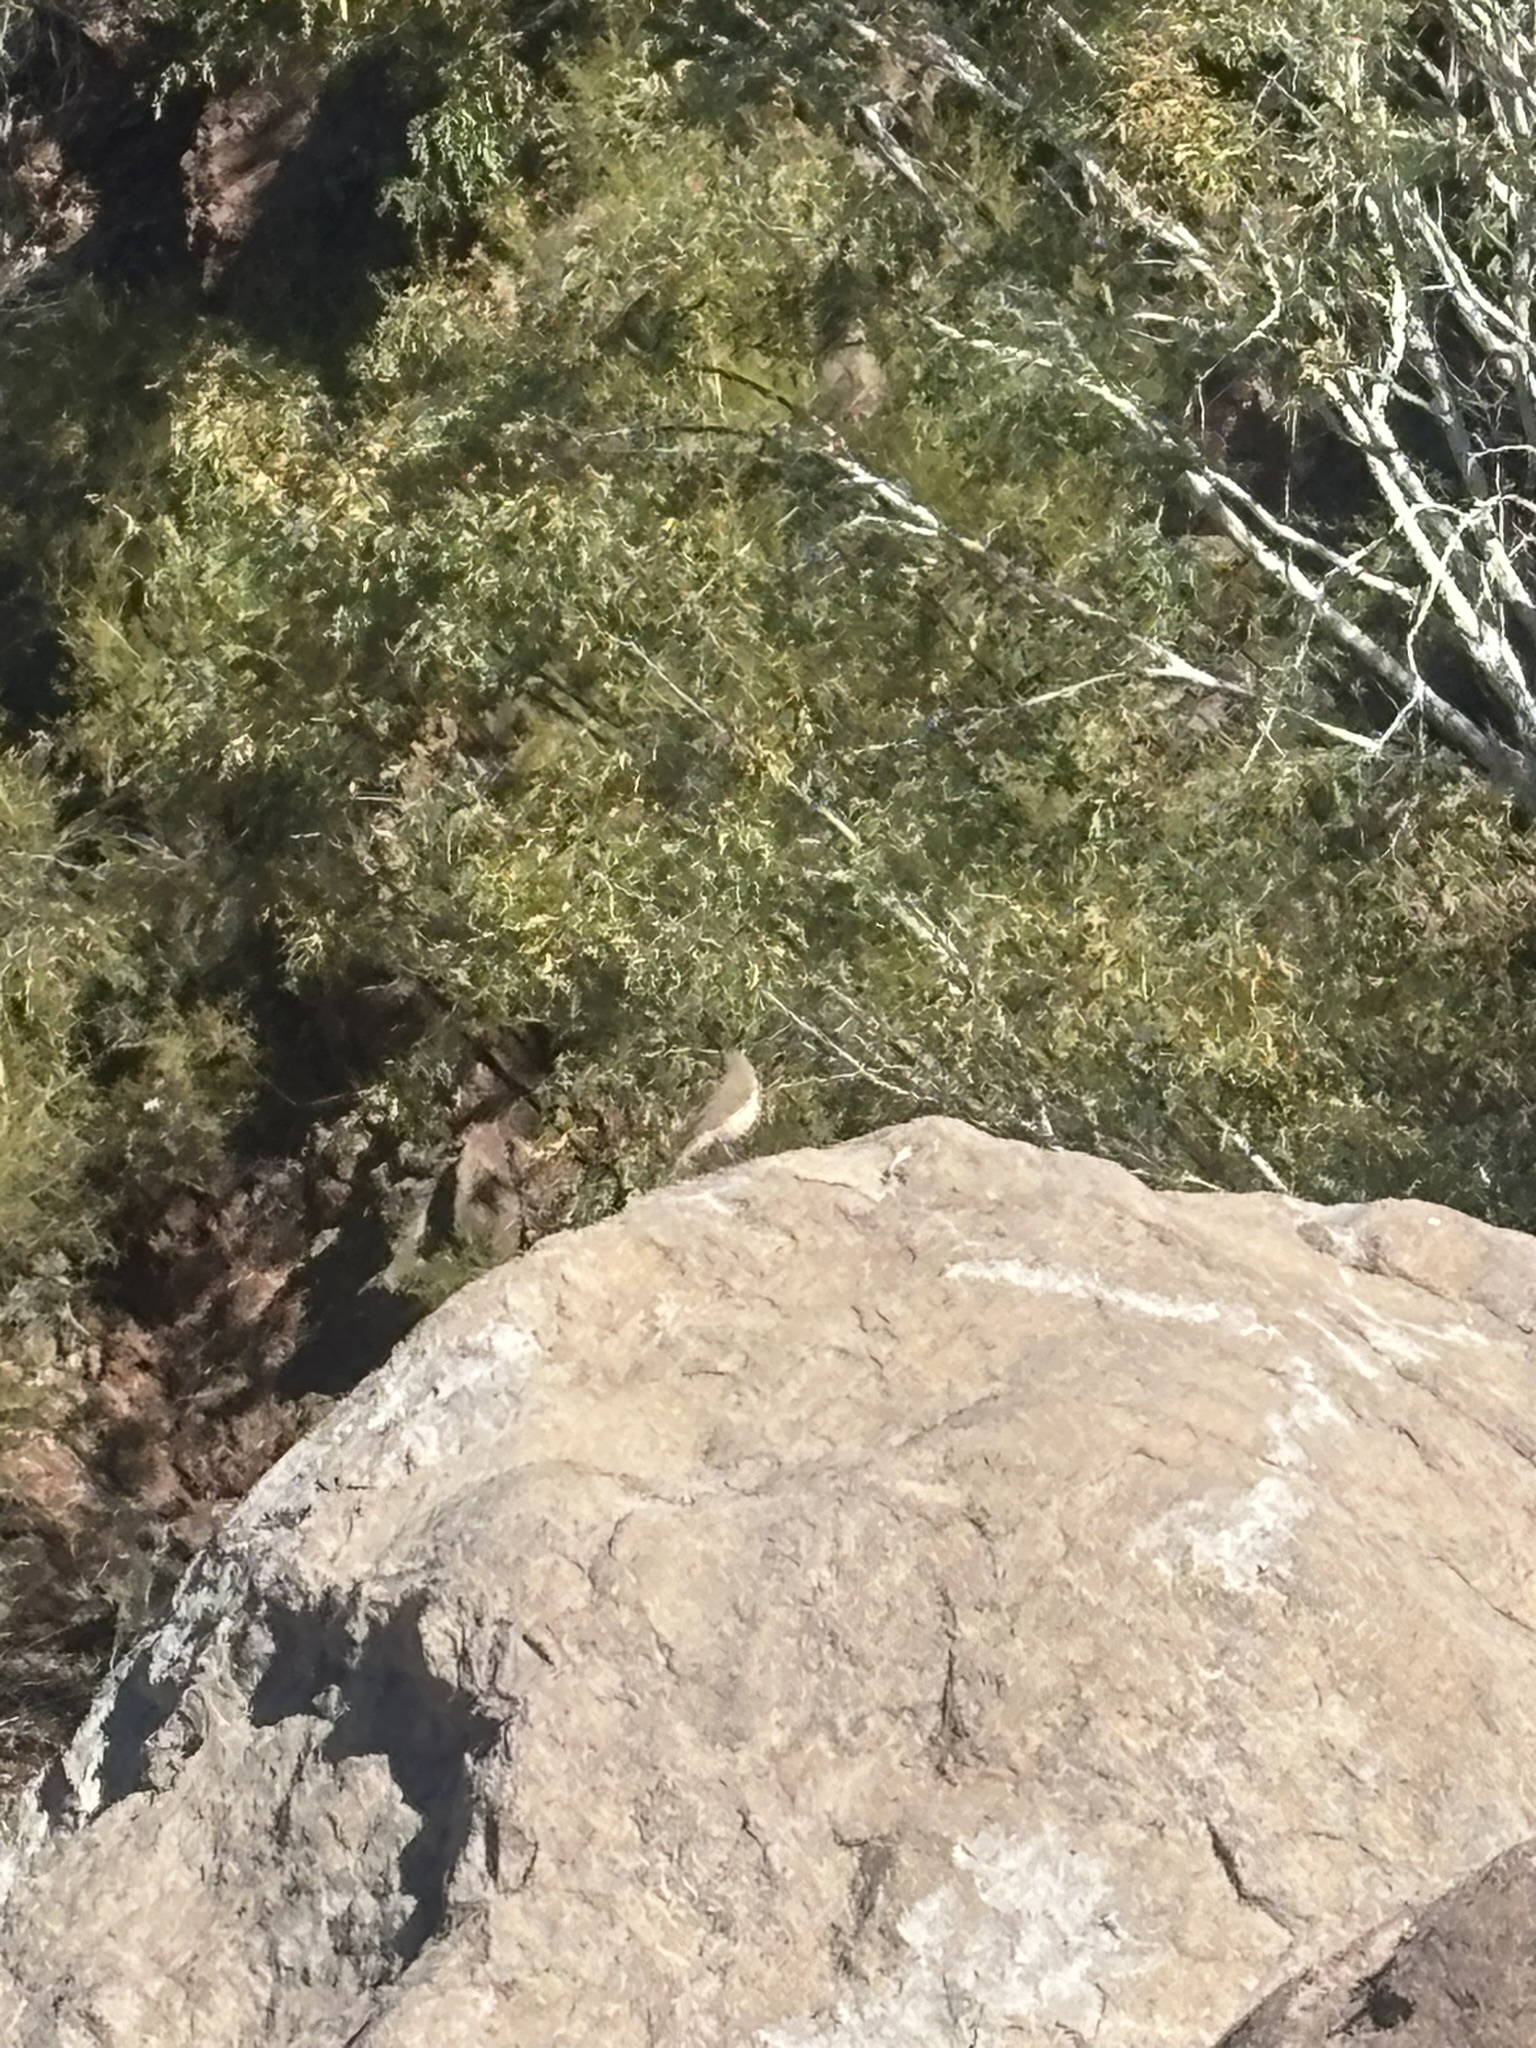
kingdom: Animalia
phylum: Chordata
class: Aves
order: Passeriformes
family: Troglodytidae
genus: Salpinctes
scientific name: Salpinctes obsoletus
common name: Rock wren
